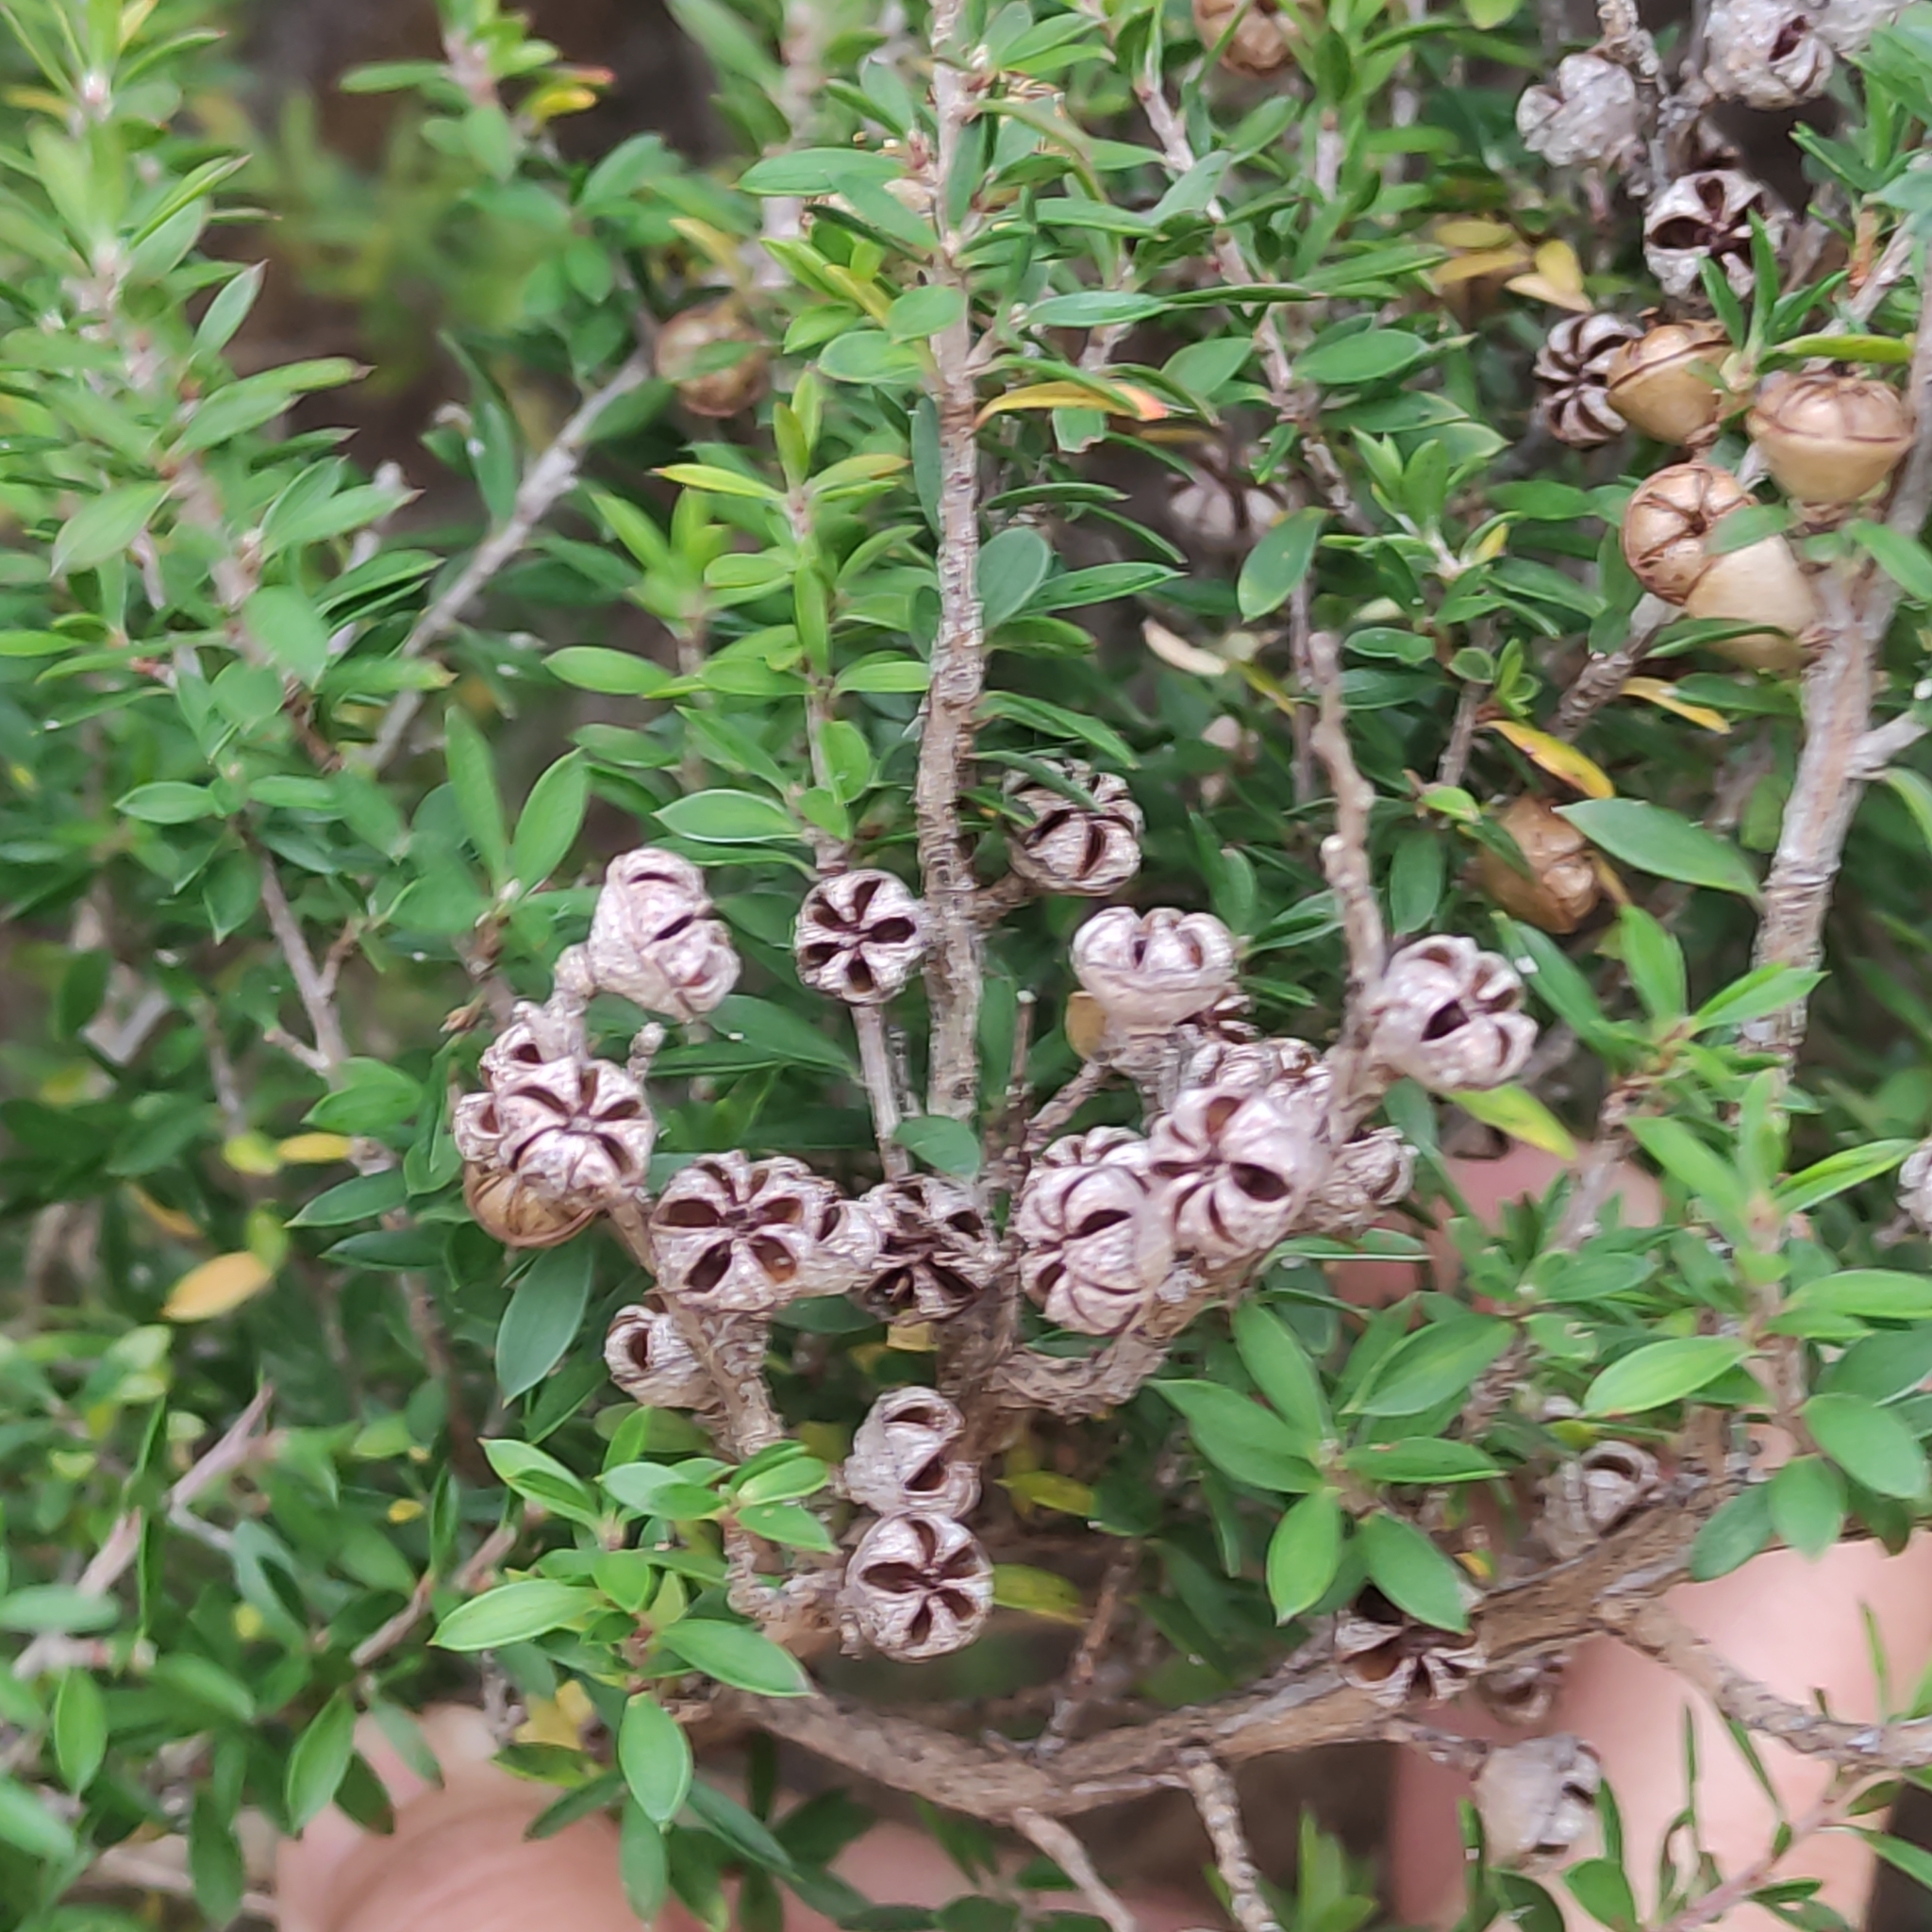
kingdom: Plantae
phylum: Tracheophyta
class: Magnoliopsida
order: Myrtales
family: Myrtaceae
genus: Leptospermum
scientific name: Leptospermum scoparium
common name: Broom tea-tree
